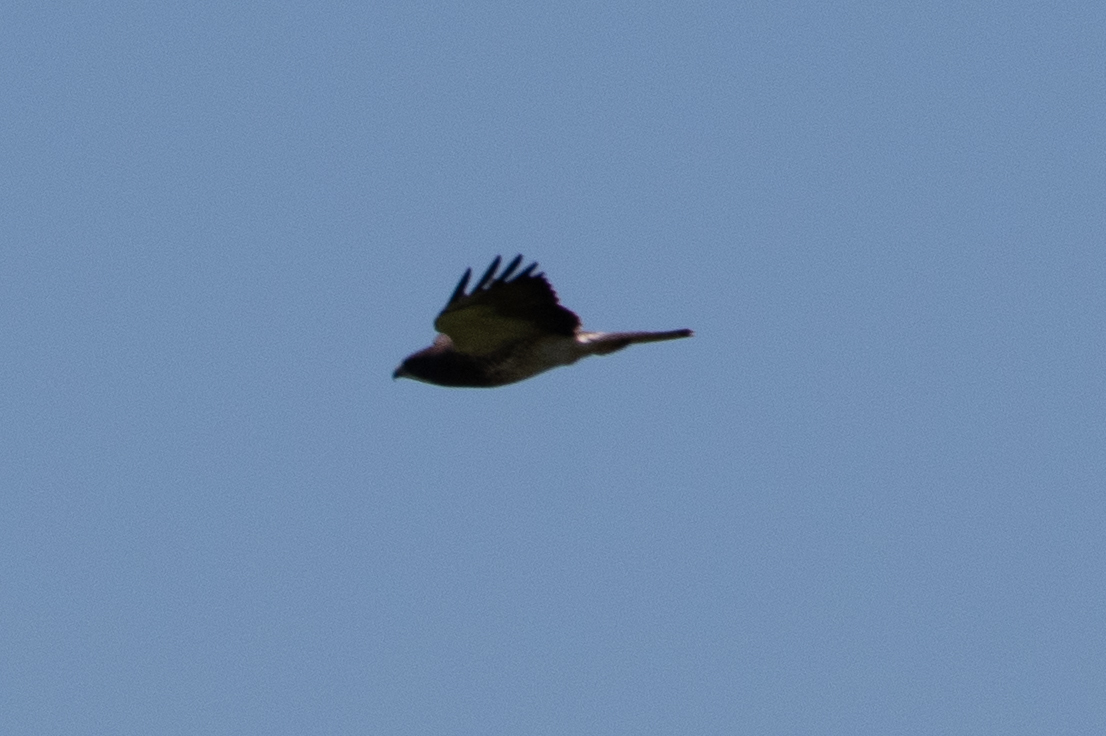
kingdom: Animalia
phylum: Chordata
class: Aves
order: Accipitriformes
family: Accipitridae
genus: Buteo
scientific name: Buteo swainsoni
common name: Swainson's hawk
